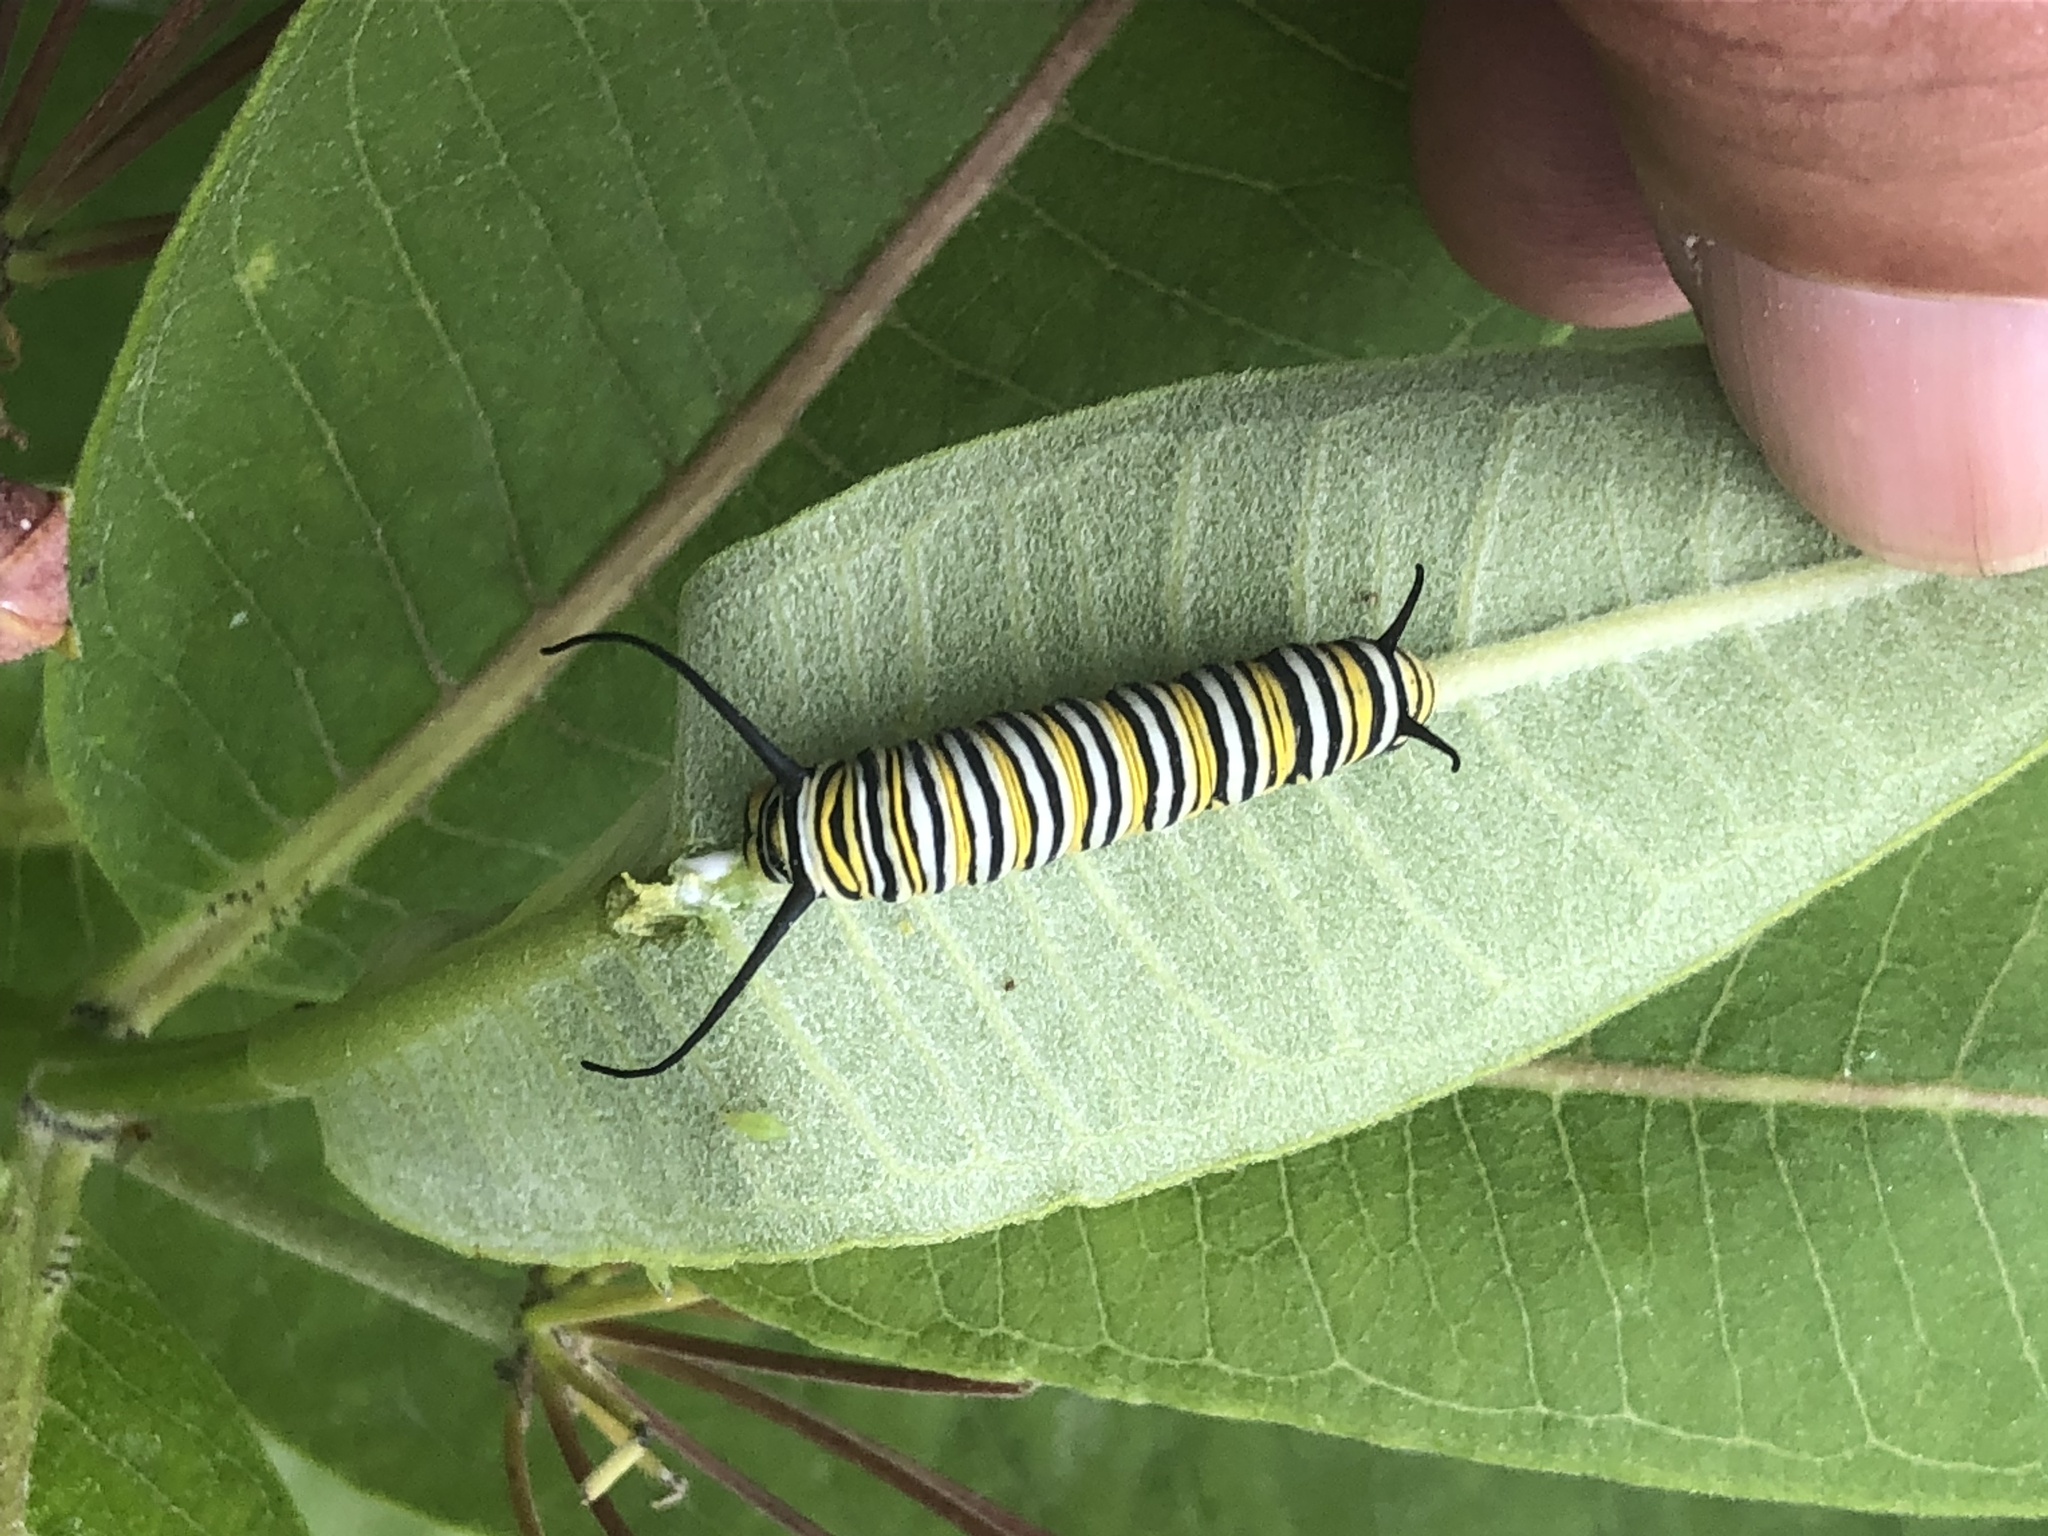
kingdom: Animalia
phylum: Arthropoda
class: Insecta
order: Lepidoptera
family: Nymphalidae
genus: Danaus
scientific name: Danaus plexippus
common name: Monarch
